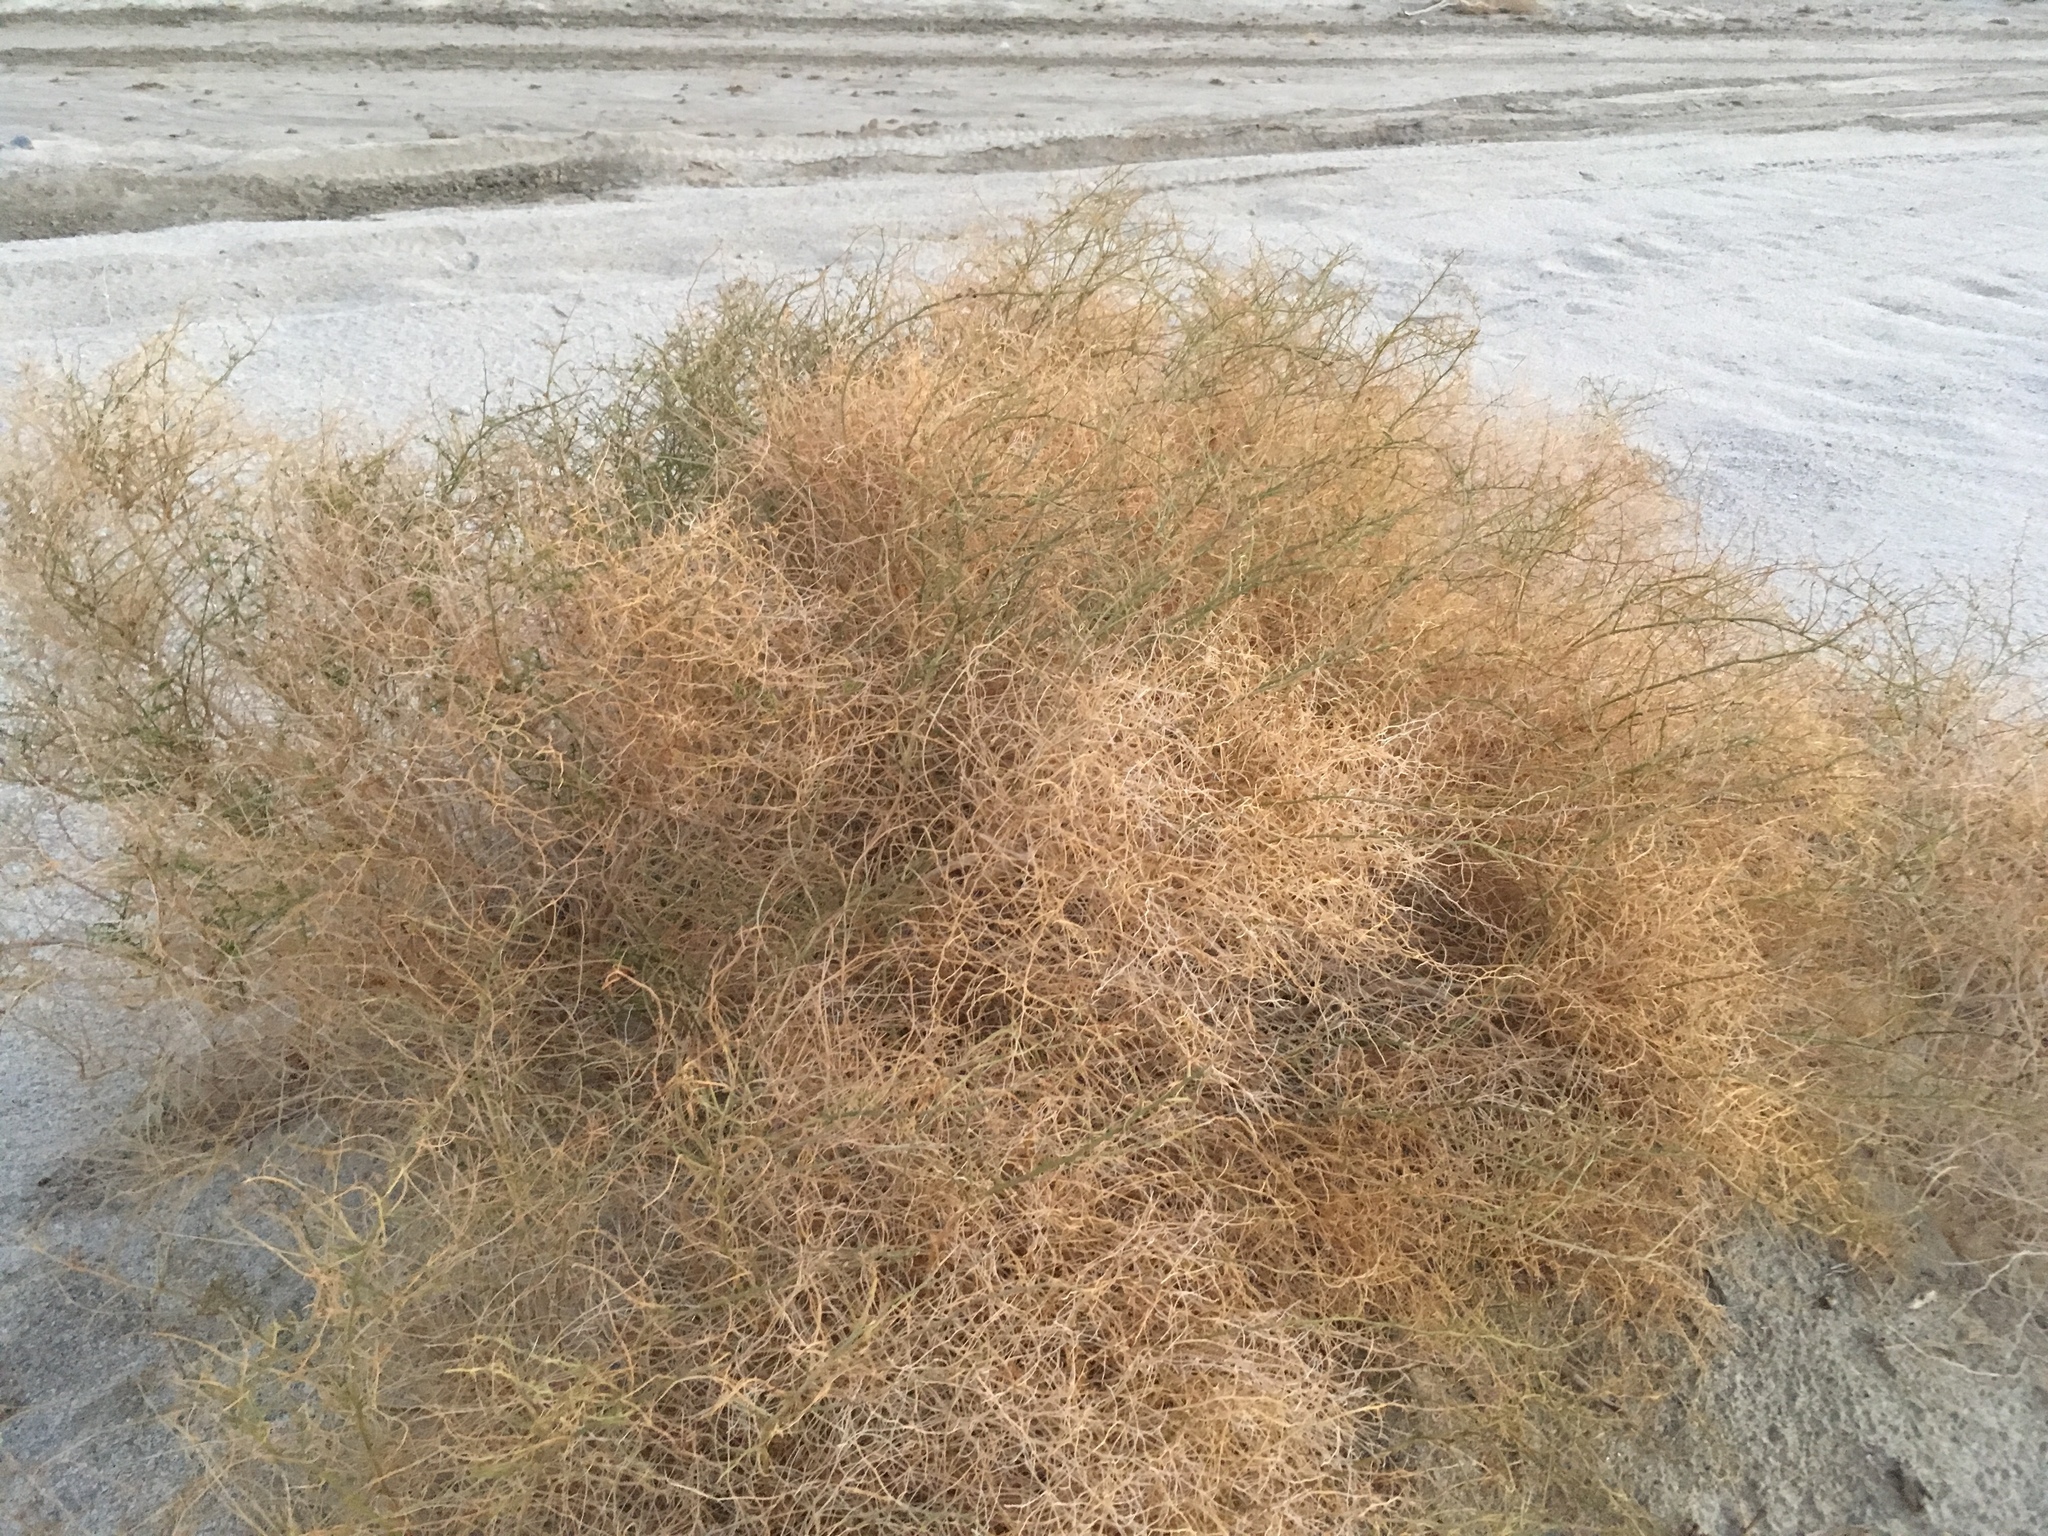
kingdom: Plantae
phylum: Tracheophyta
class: Magnoliopsida
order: Asterales
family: Asteraceae
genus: Ambrosia
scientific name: Ambrosia salsola
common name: Burrobrush
